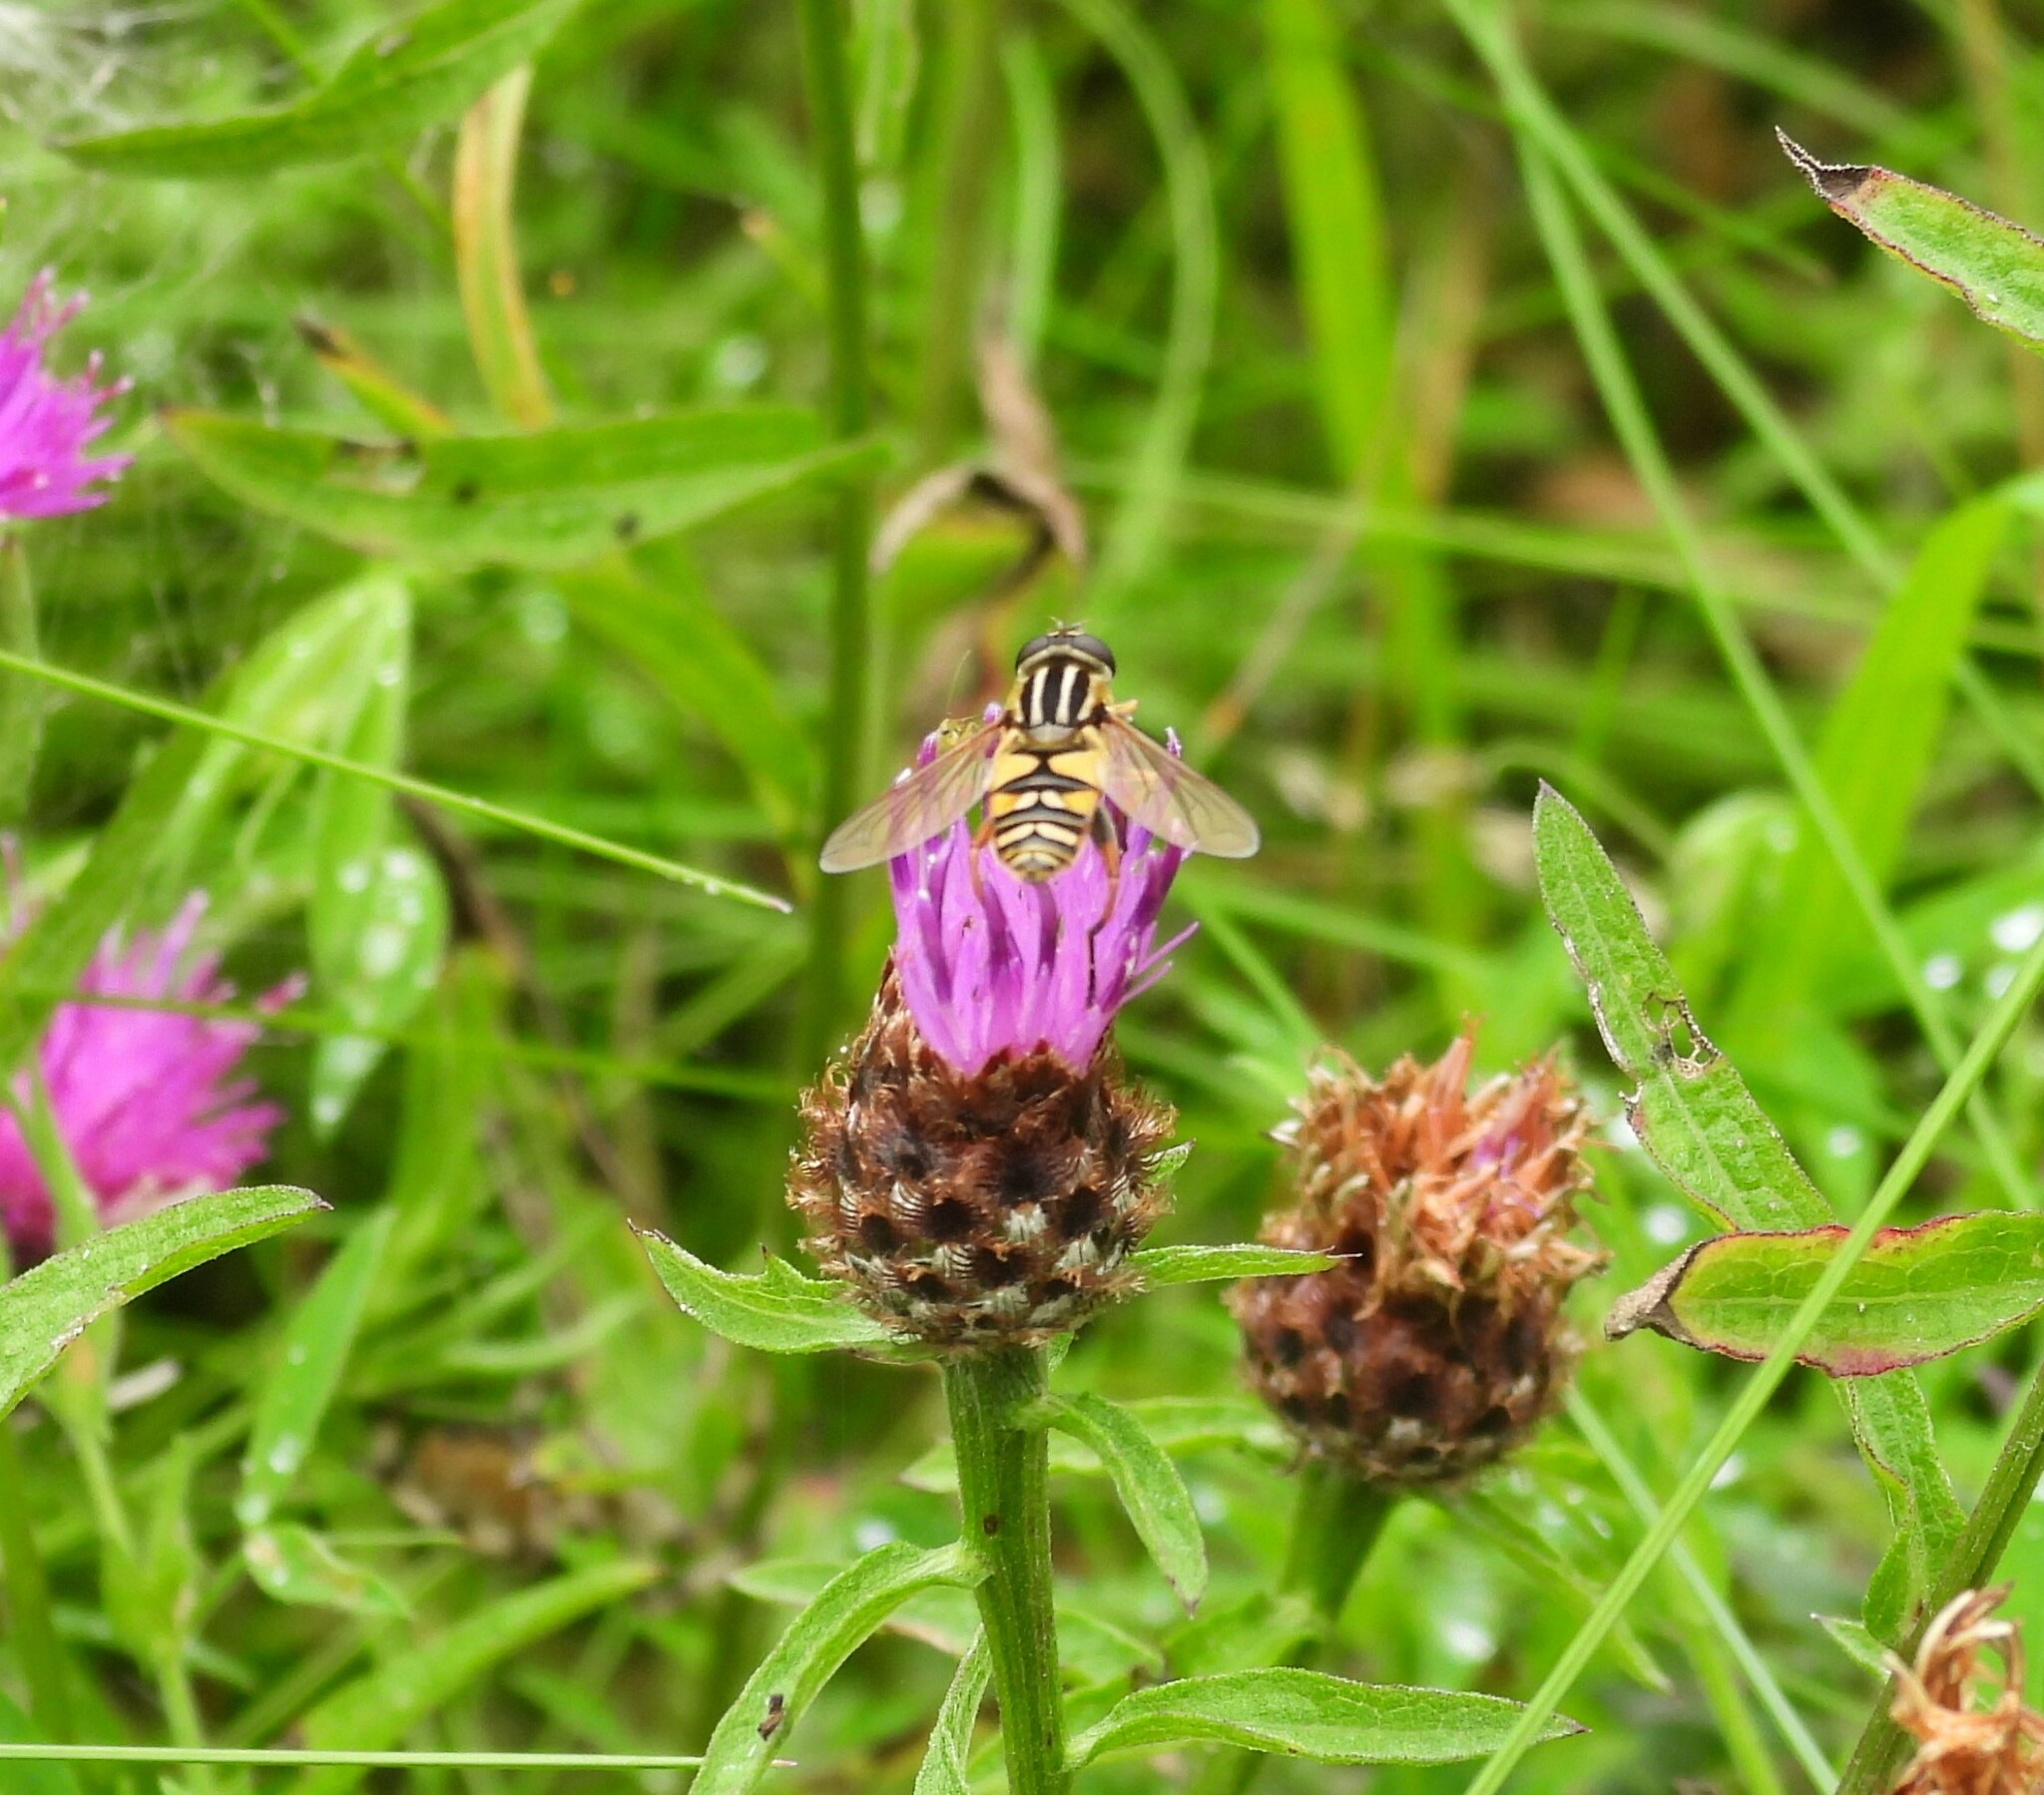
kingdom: Animalia
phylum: Arthropoda
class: Insecta
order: Diptera
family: Syrphidae
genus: Helophilus
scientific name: Helophilus pendulus
